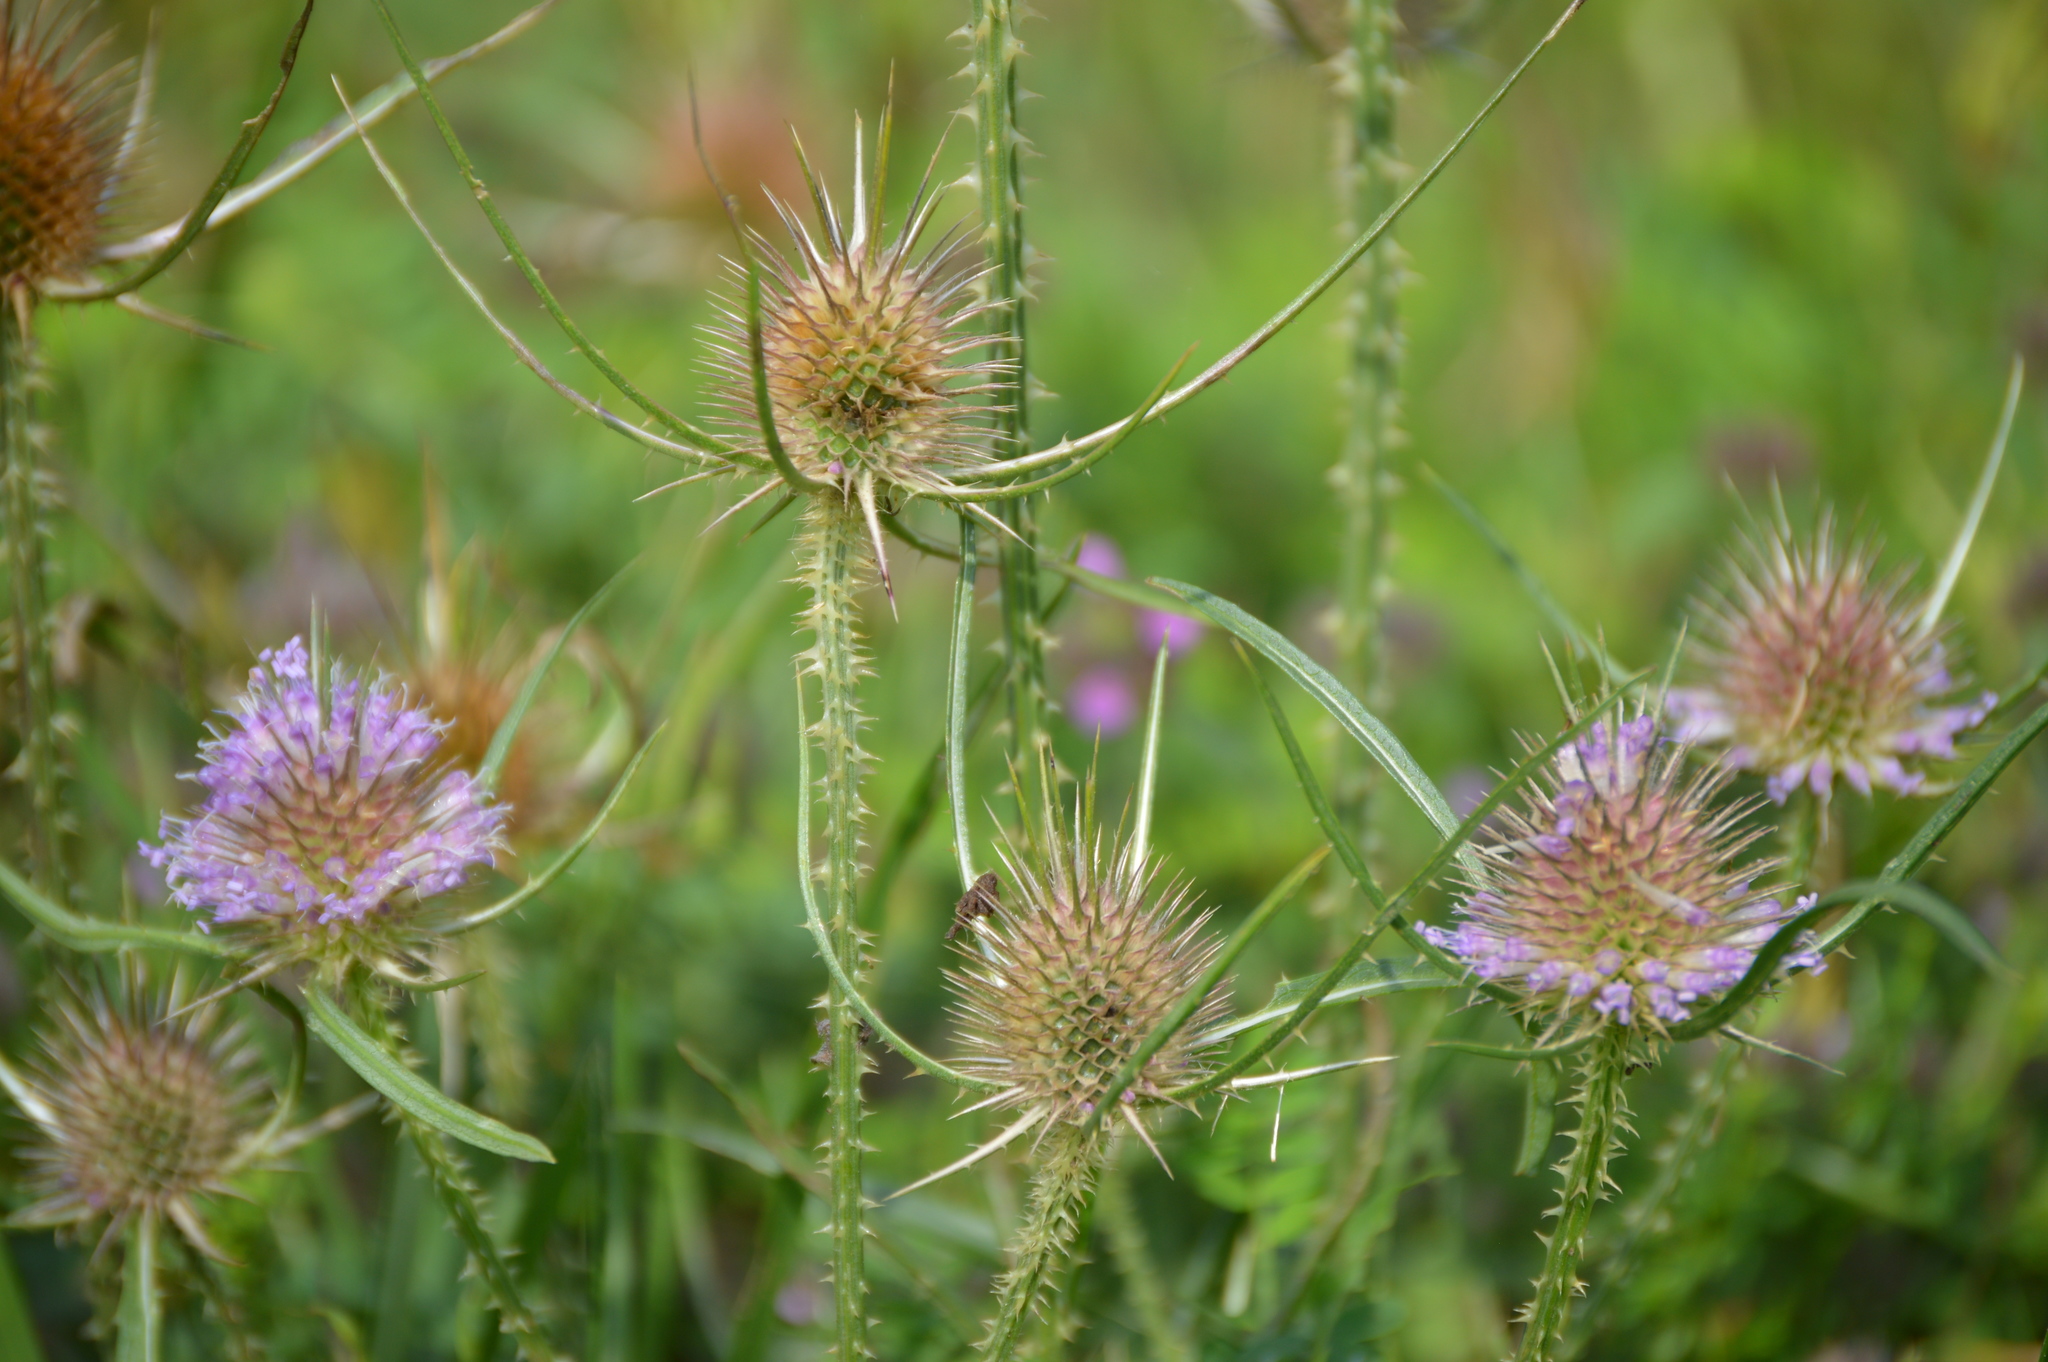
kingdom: Plantae
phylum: Tracheophyta
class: Magnoliopsida
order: Dipsacales
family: Caprifoliaceae
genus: Dipsacus
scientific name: Dipsacus fullonum
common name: Teasel
